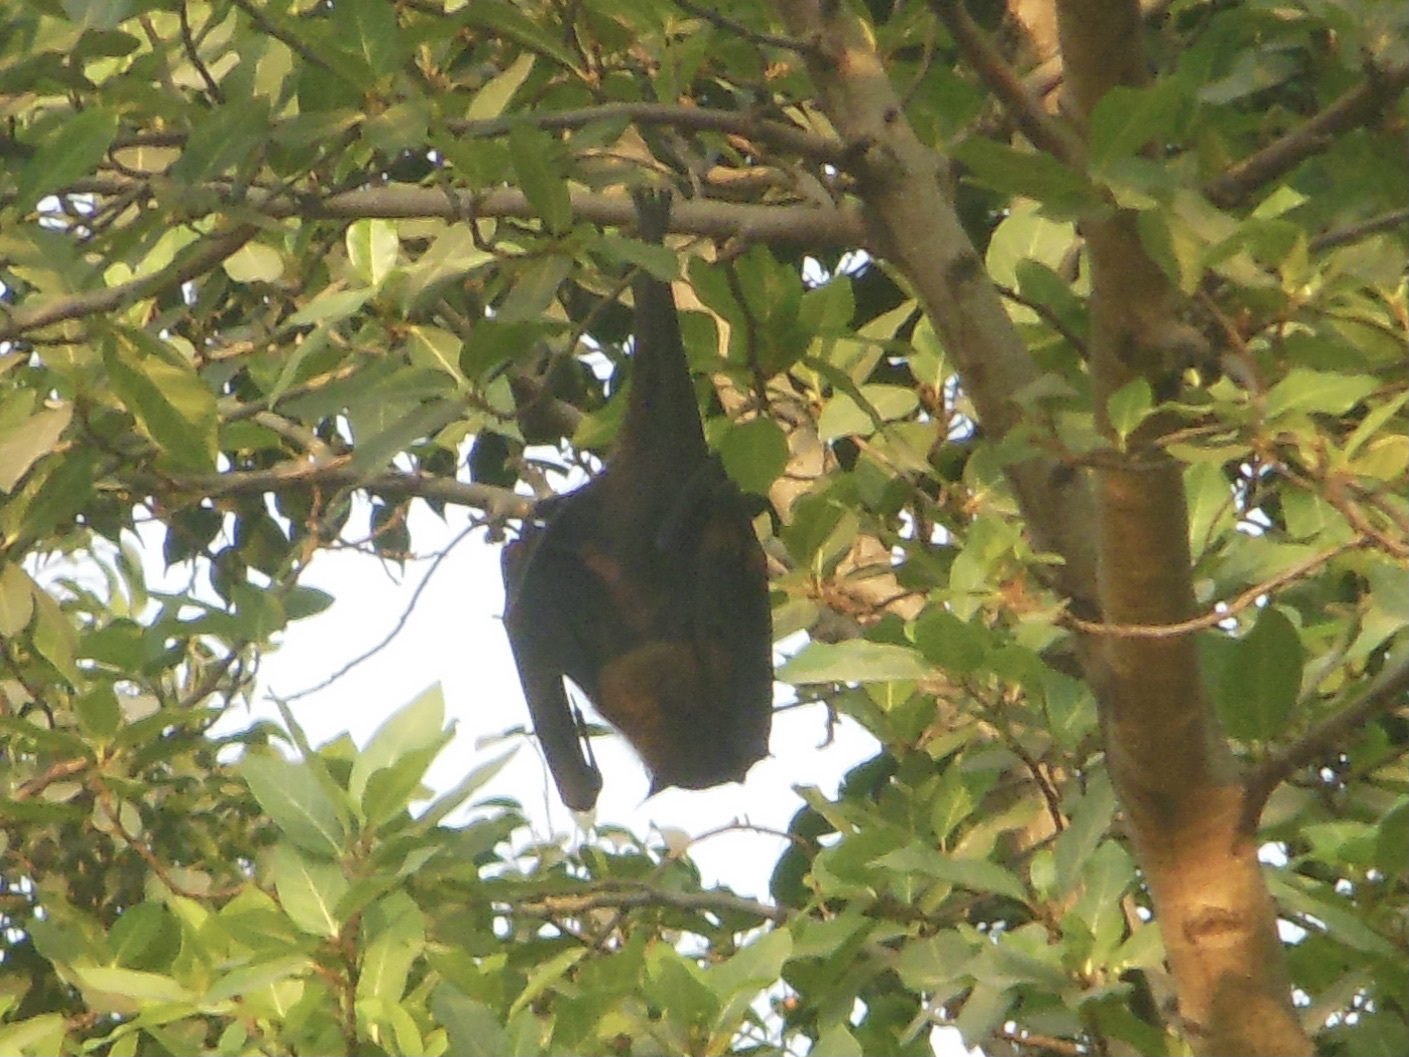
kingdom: Animalia
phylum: Chordata
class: Mammalia
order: Chiroptera
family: Pteropodidae
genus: Pteropus
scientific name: Pteropus vampyrus
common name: Large flying fox
